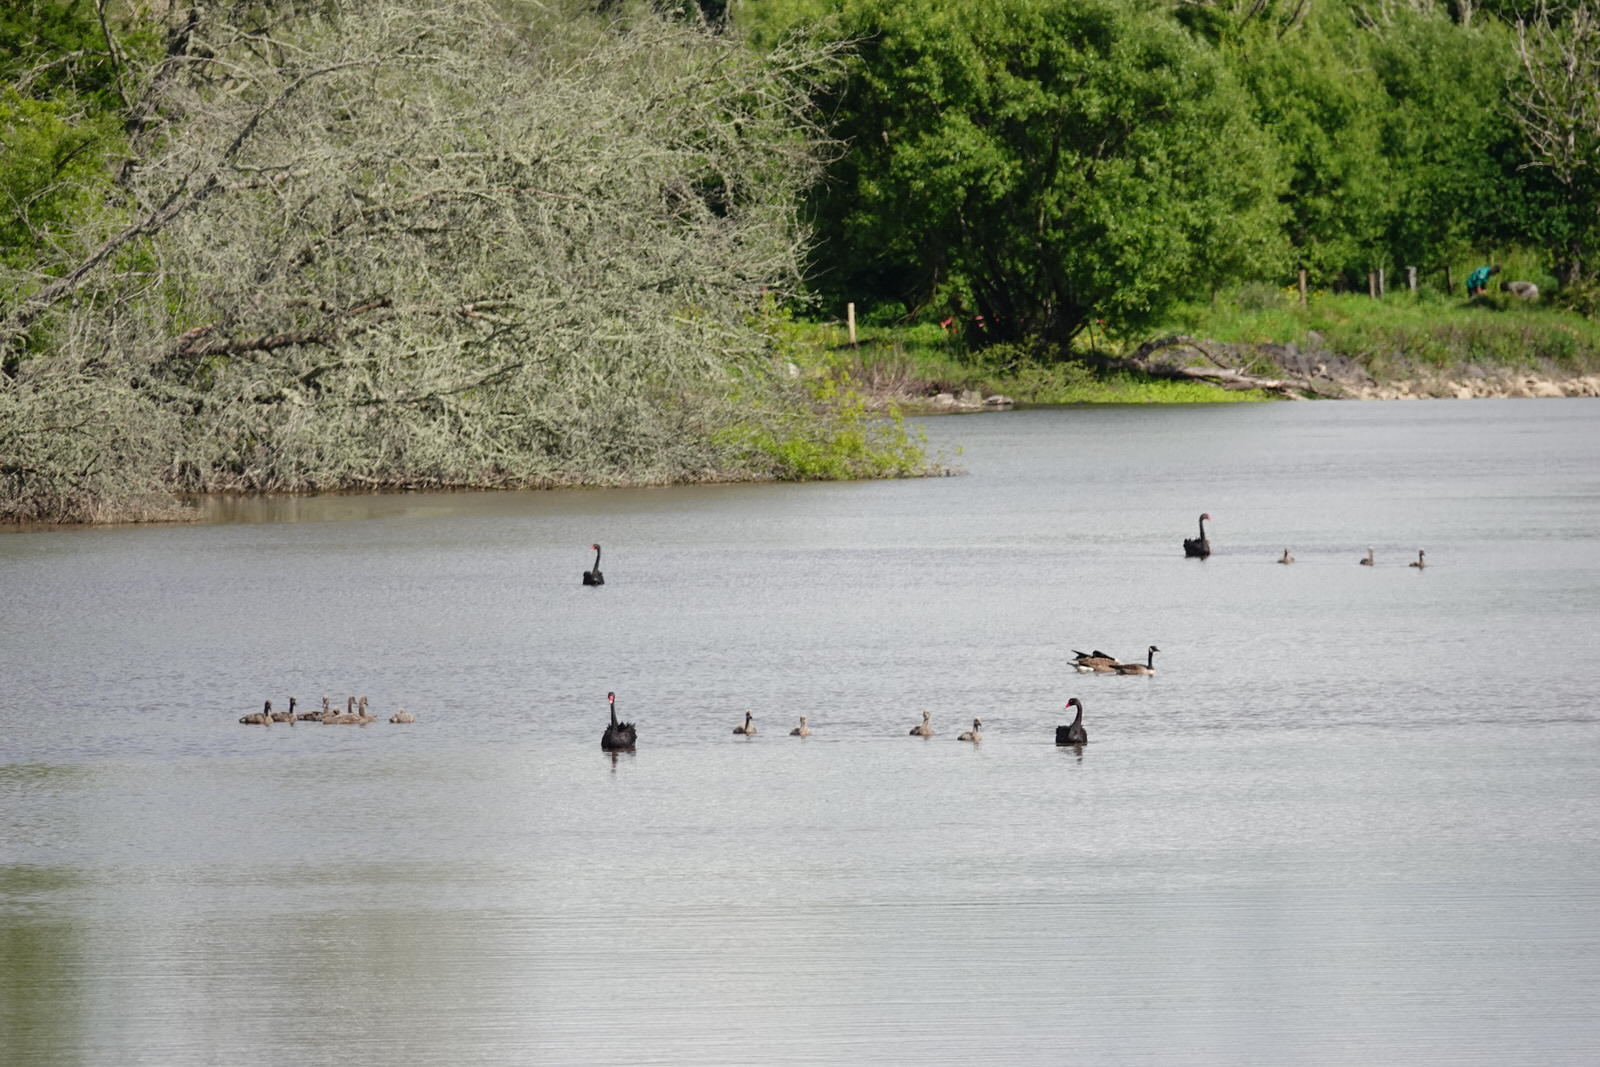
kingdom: Animalia
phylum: Chordata
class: Aves
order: Anseriformes
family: Anatidae
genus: Branta
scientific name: Branta canadensis
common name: Canada goose
